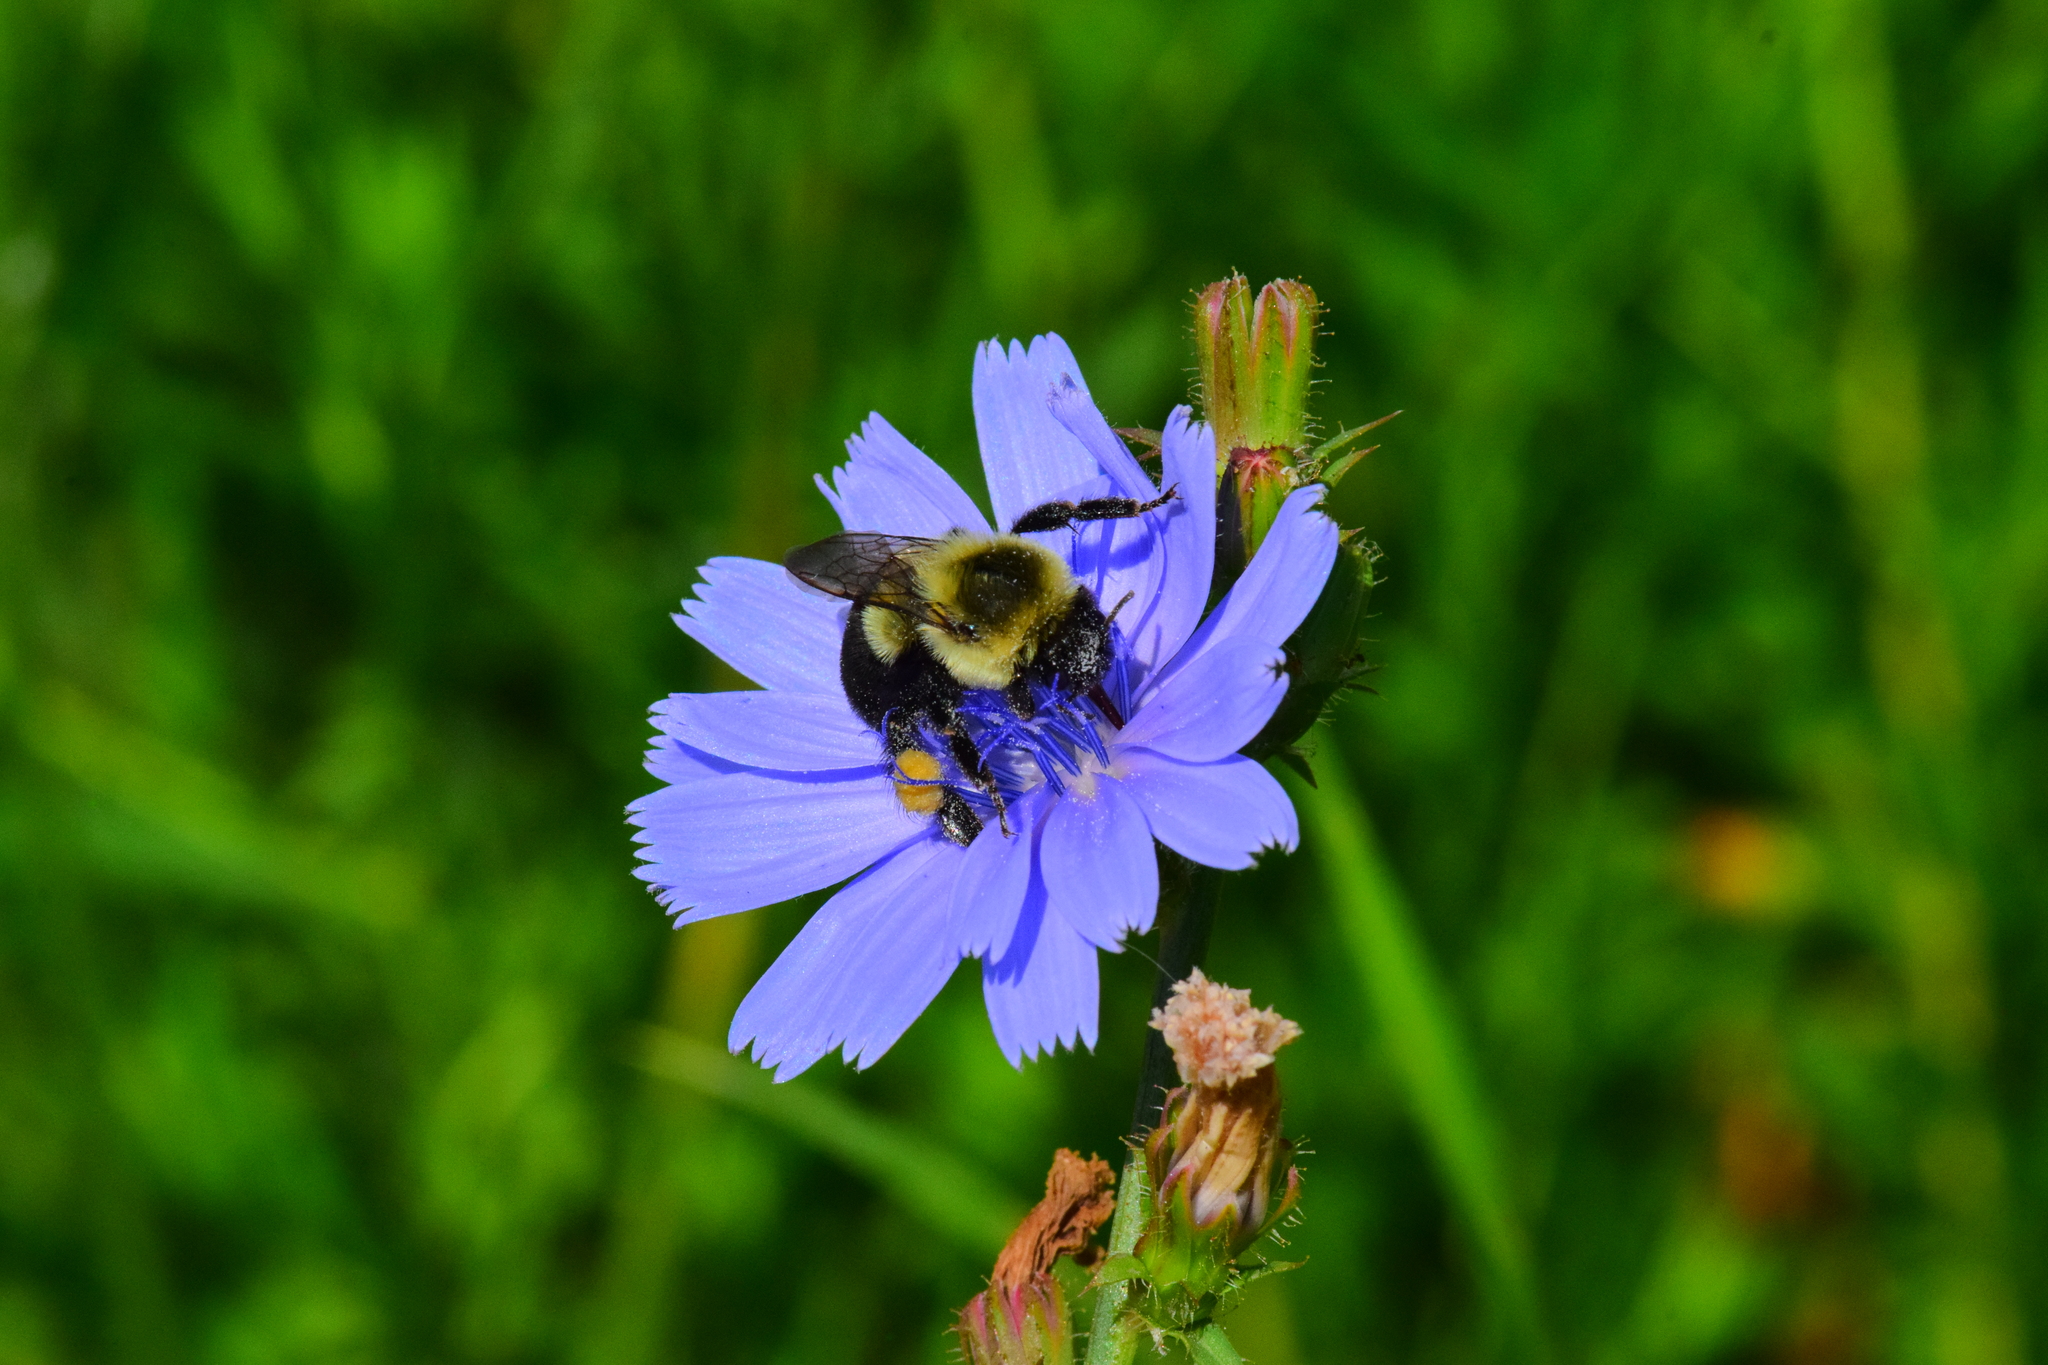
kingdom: Animalia
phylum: Arthropoda
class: Insecta
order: Hymenoptera
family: Apidae
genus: Bombus
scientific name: Bombus impatiens
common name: Common eastern bumble bee
